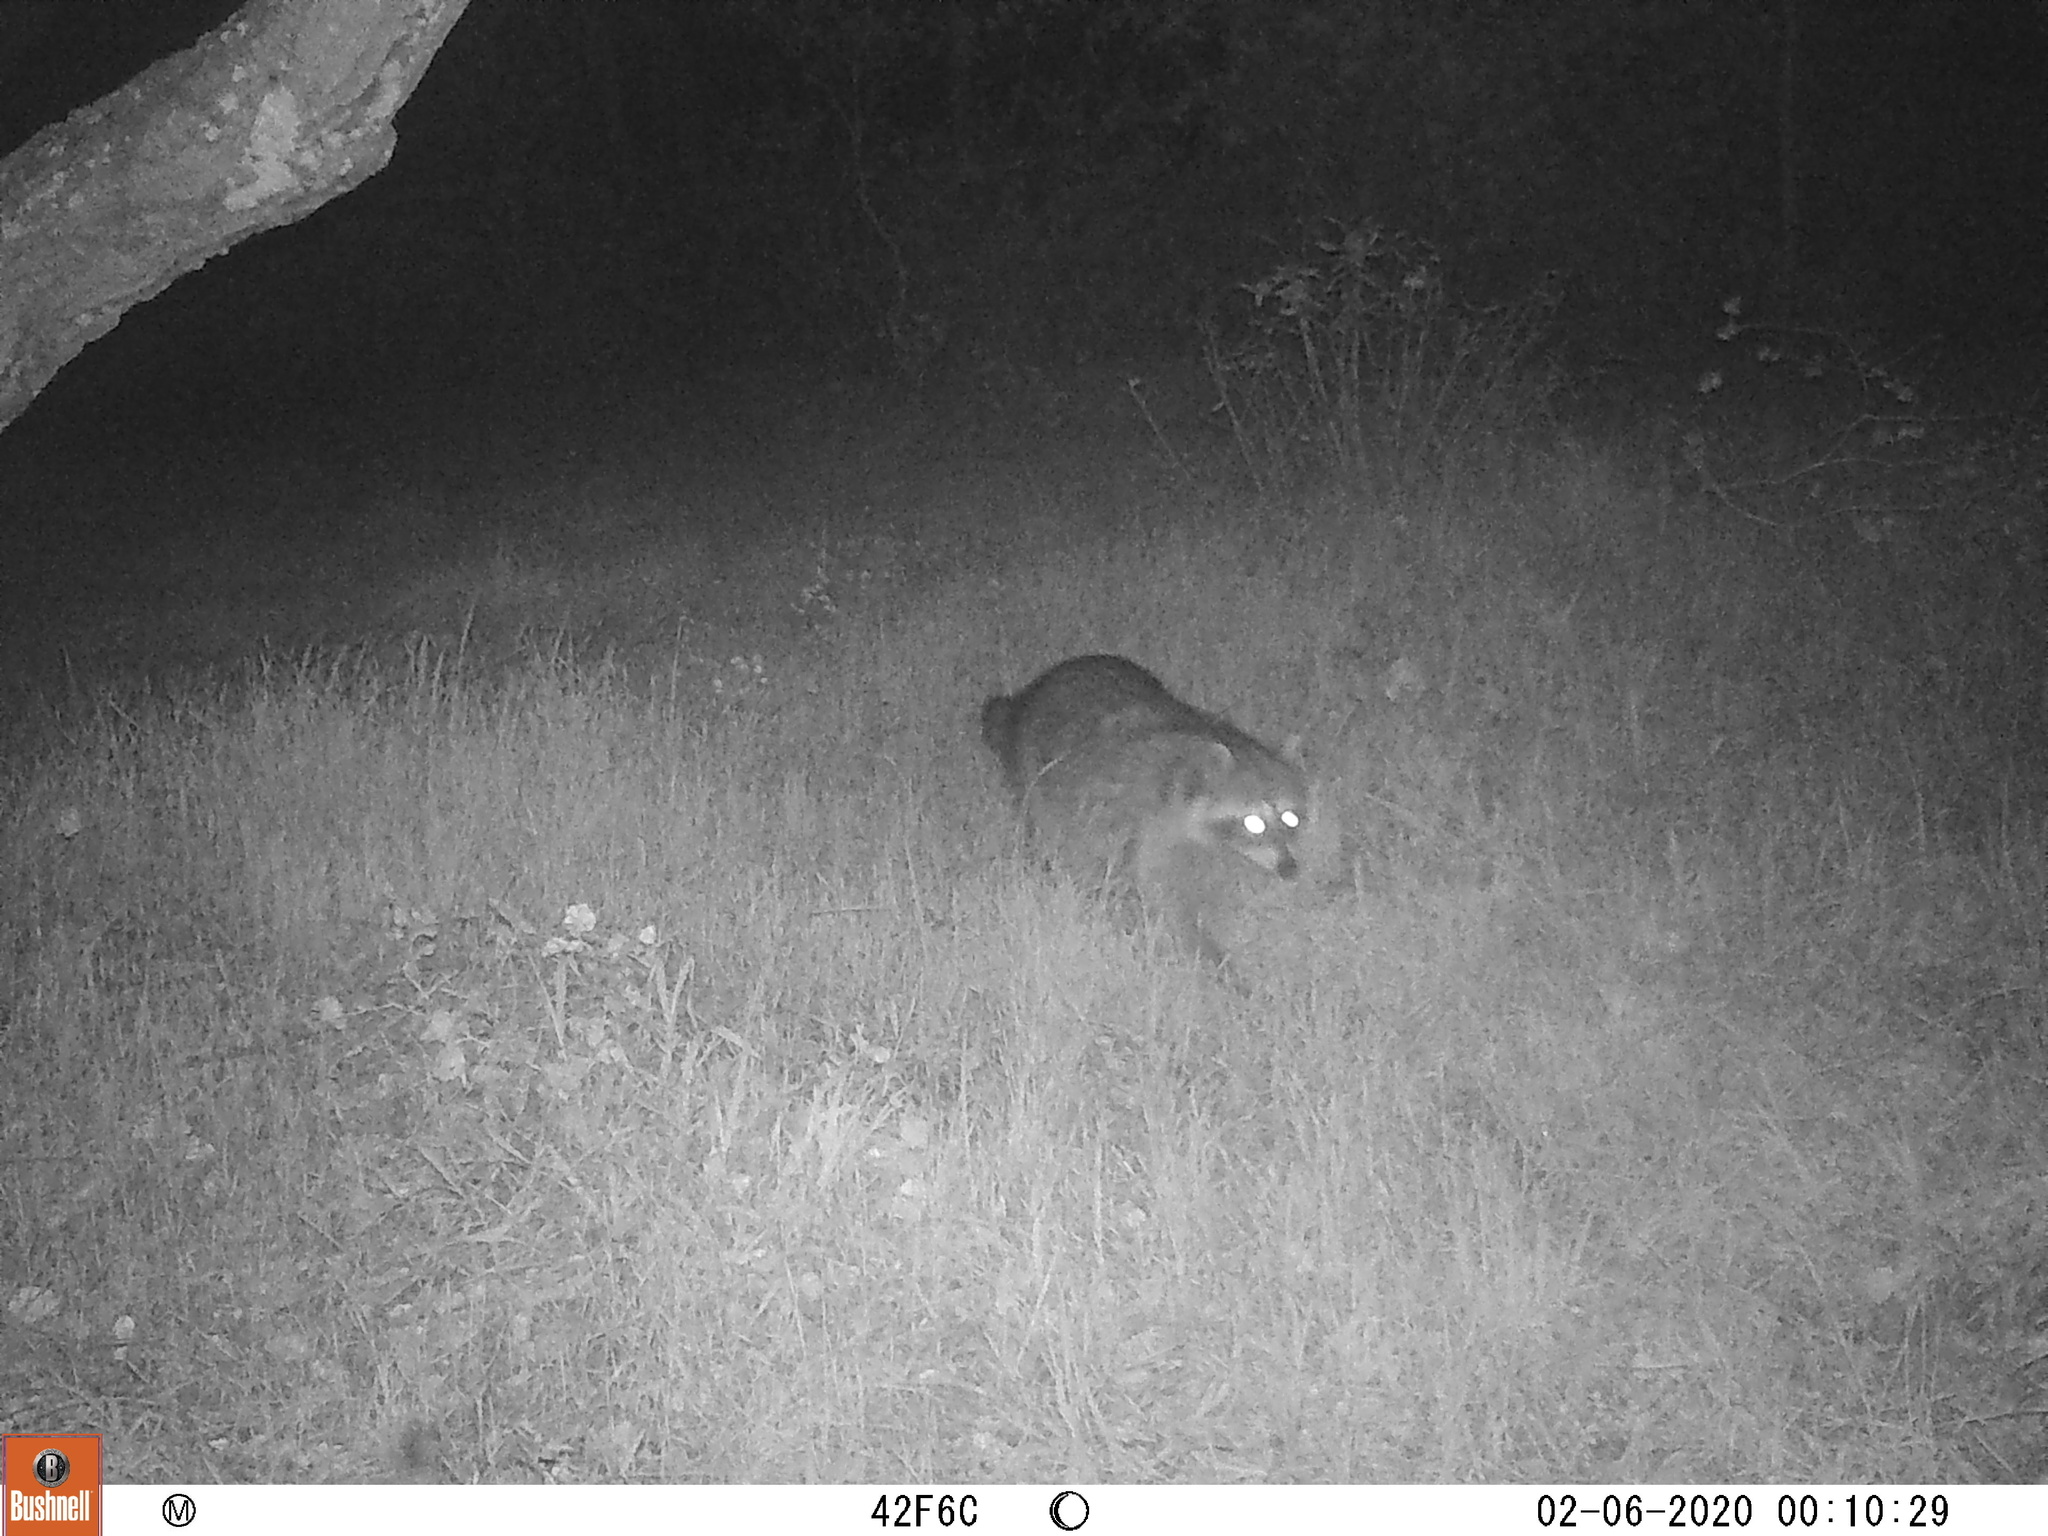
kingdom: Animalia
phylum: Chordata
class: Mammalia
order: Carnivora
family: Procyonidae
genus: Procyon
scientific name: Procyon lotor
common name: Raccoon
